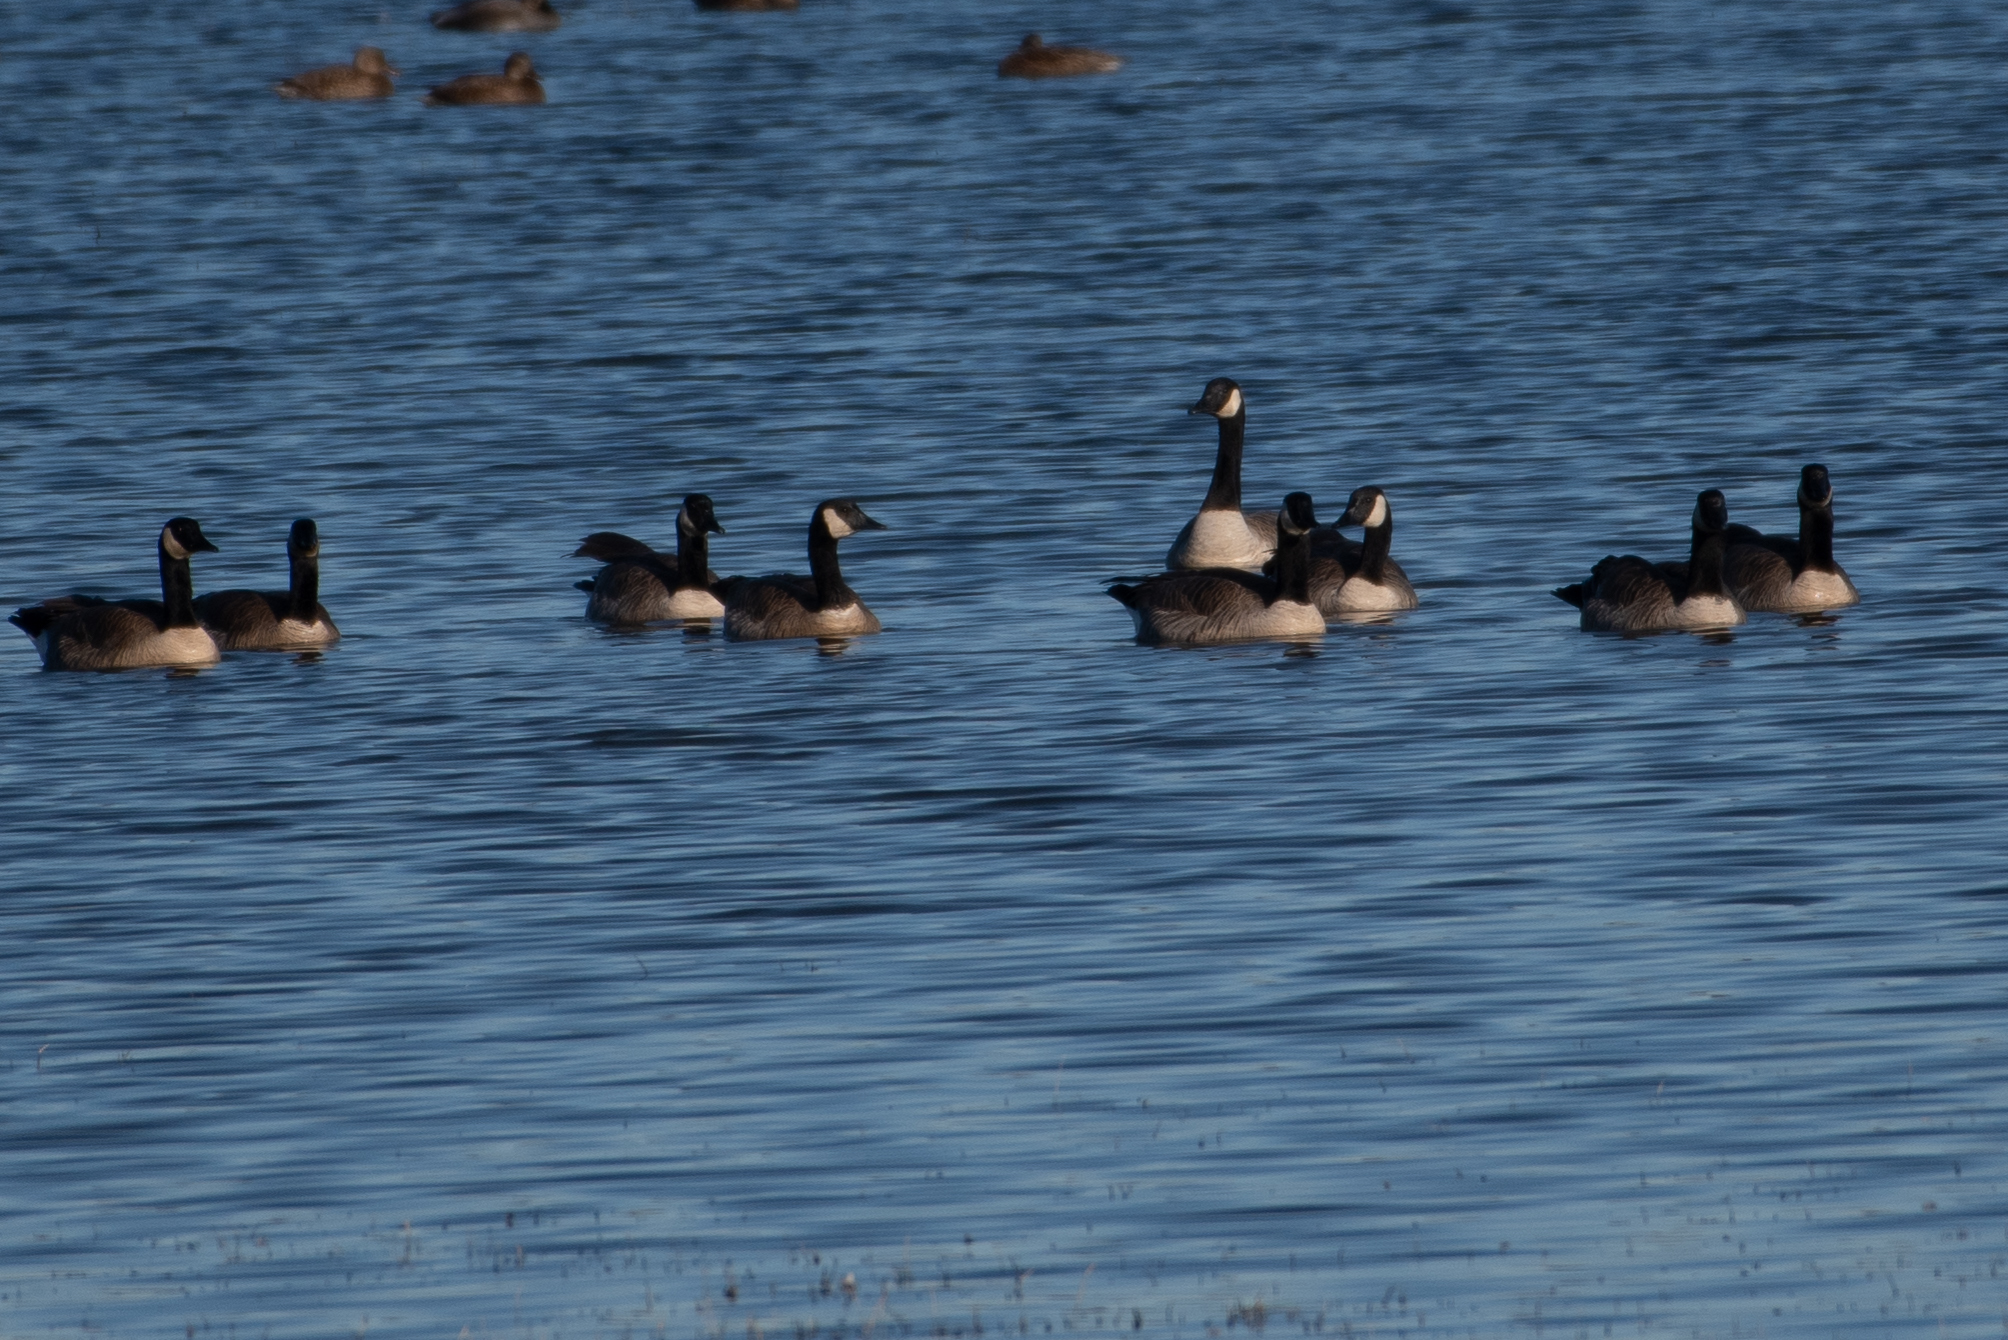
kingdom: Animalia
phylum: Chordata
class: Aves
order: Anseriformes
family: Anatidae
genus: Branta
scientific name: Branta canadensis
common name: Canada goose
